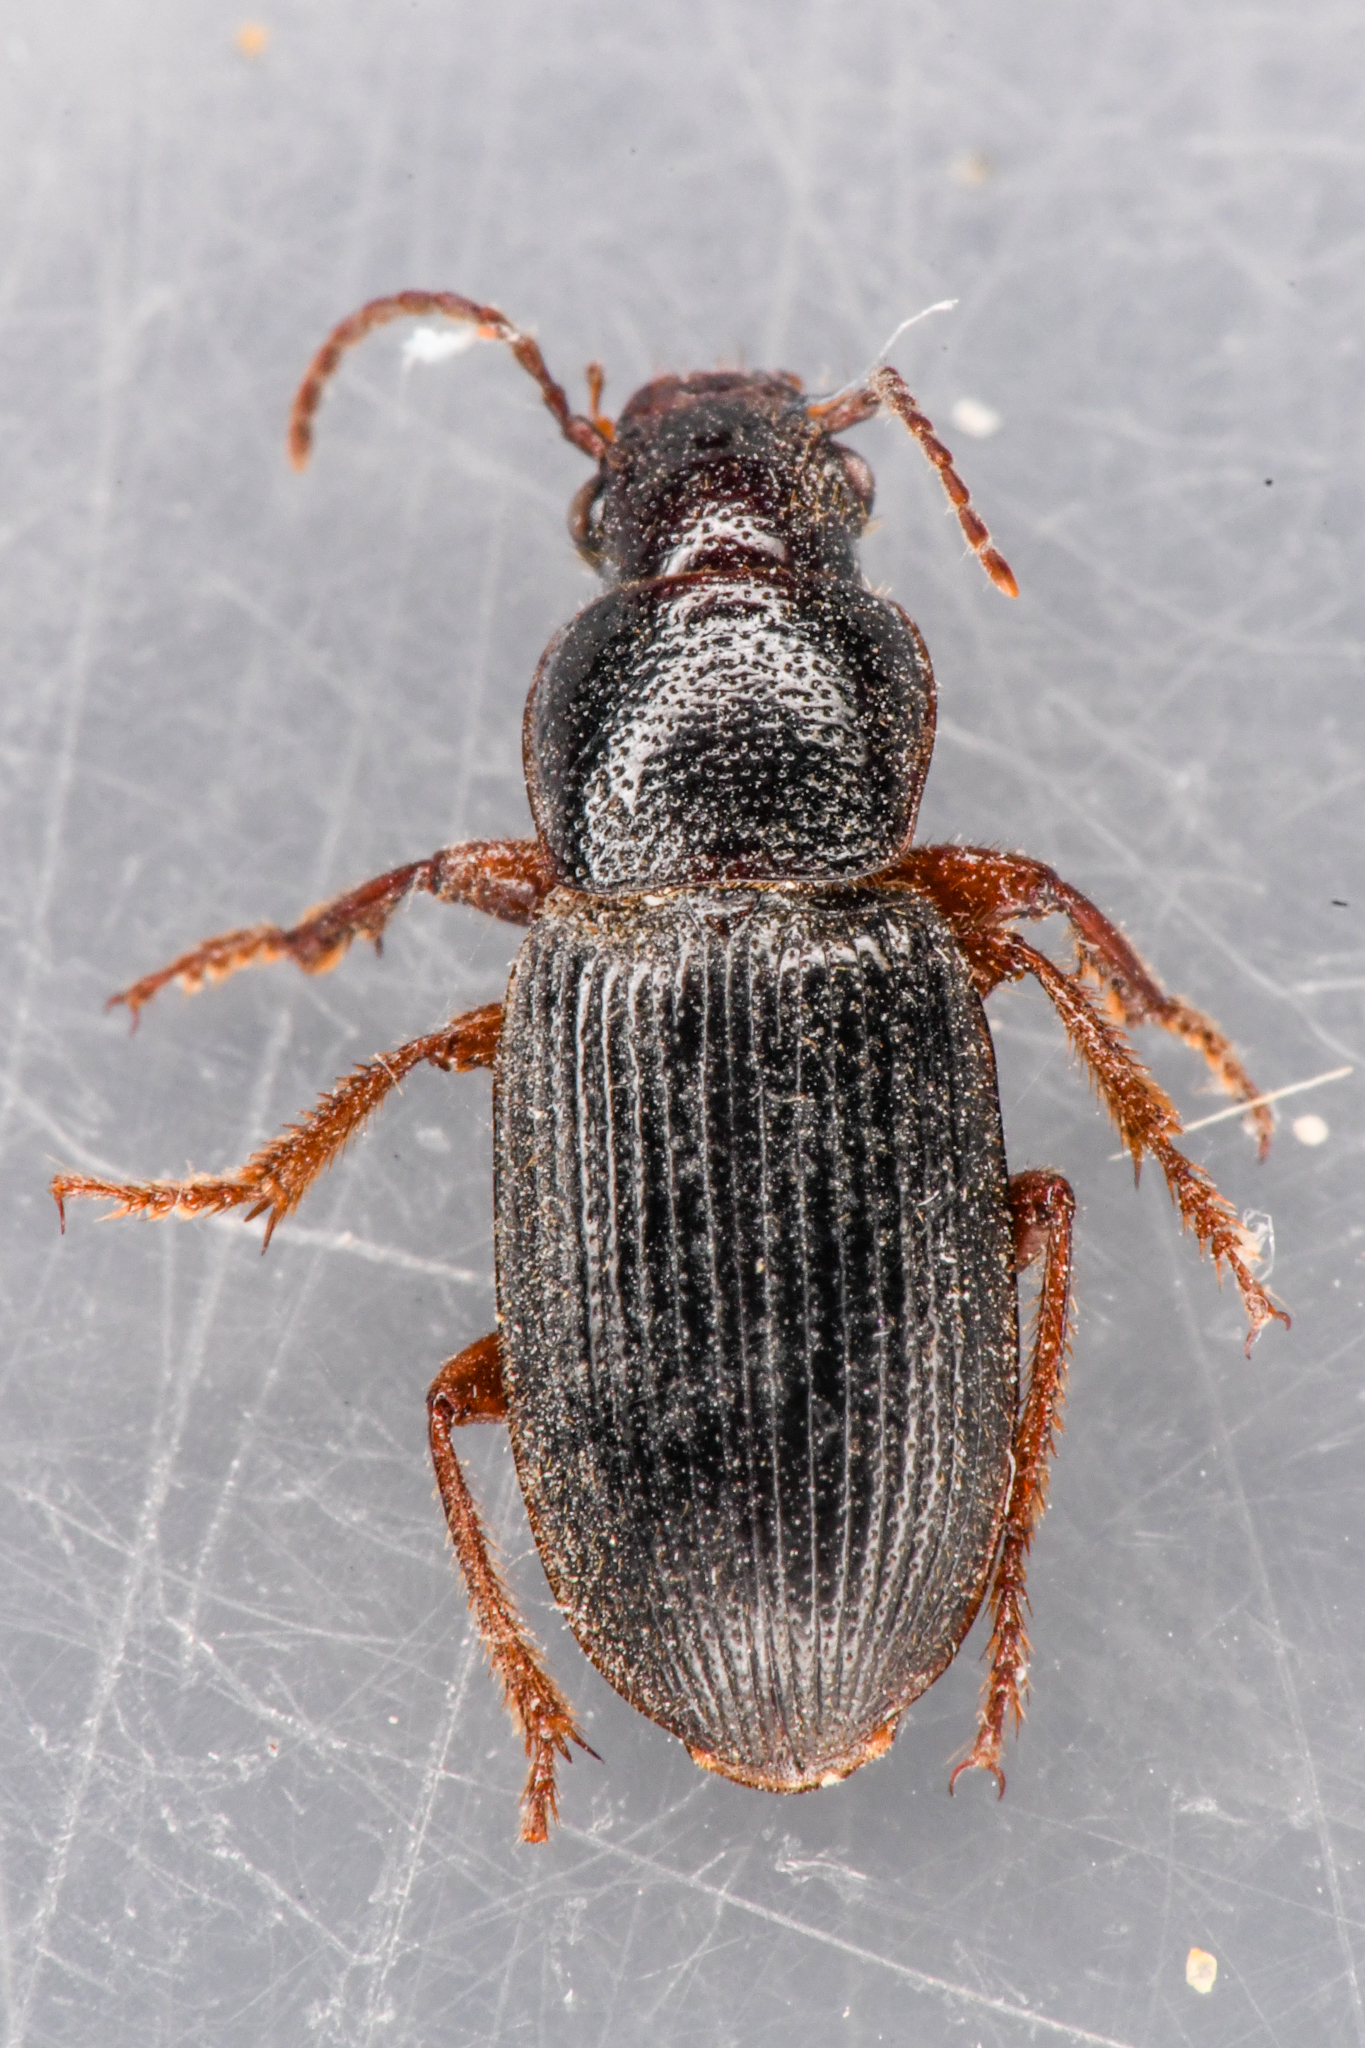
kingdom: Animalia
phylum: Arthropoda
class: Insecta
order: Coleoptera
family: Carabidae
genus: Dicheirus
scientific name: Dicheirus piceus
